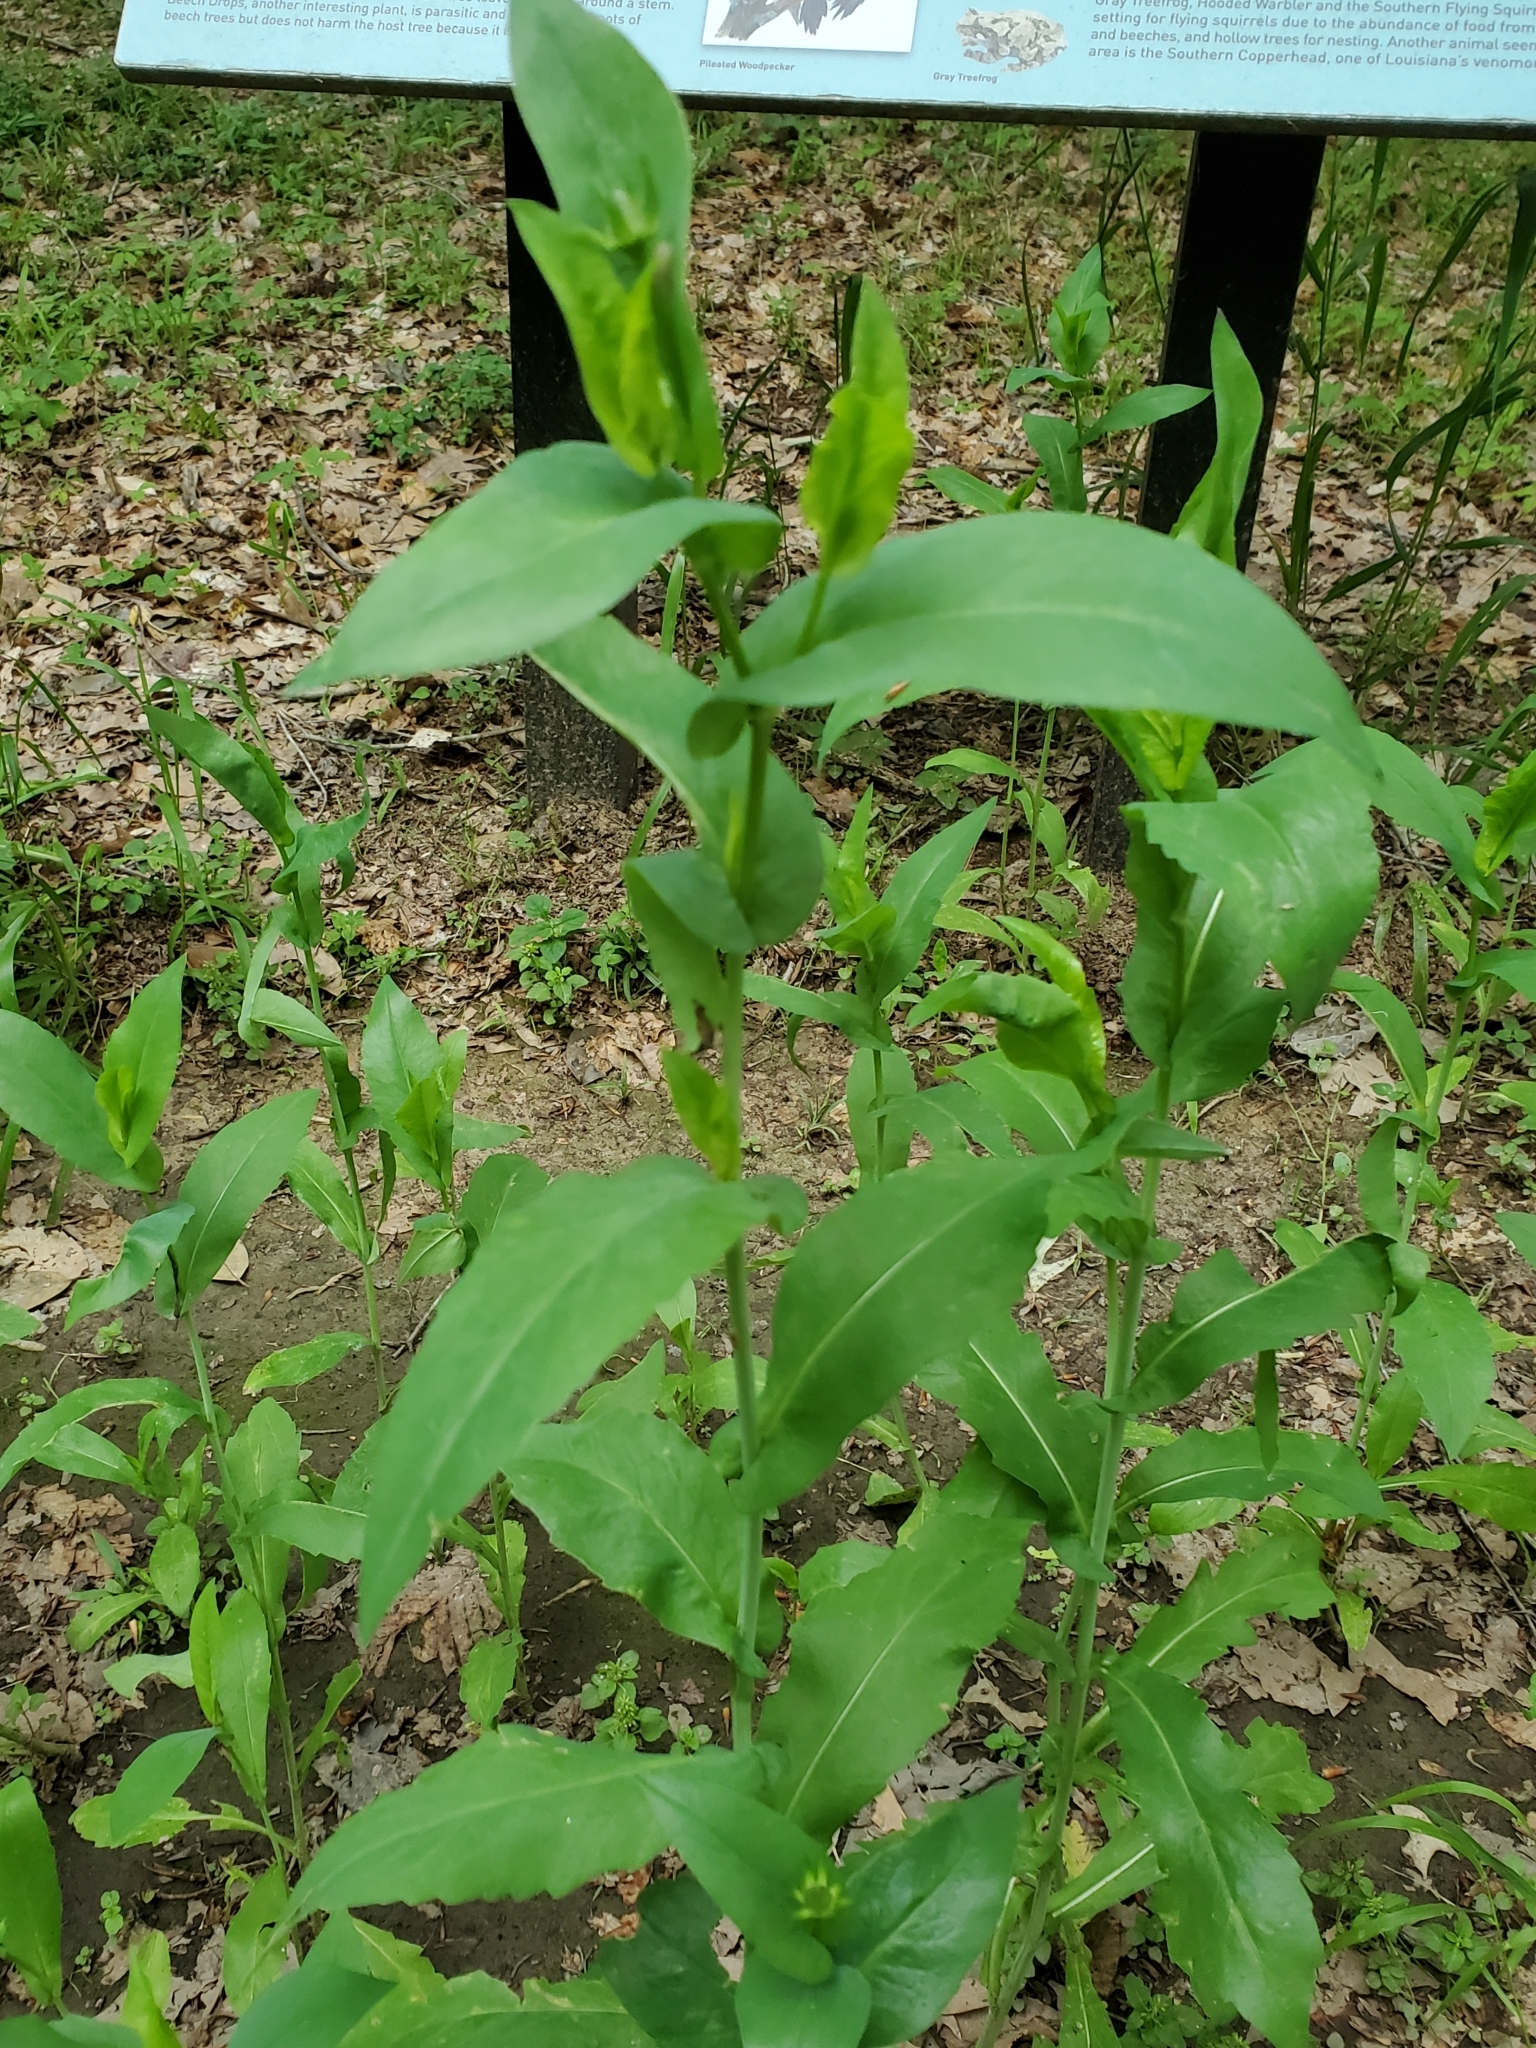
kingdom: Plantae
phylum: Tracheophyta
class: Magnoliopsida
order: Asterales
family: Asteraceae
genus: Rudbeckia
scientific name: Rudbeckia amplexicaulis
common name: Clasping-leaf coneflower
